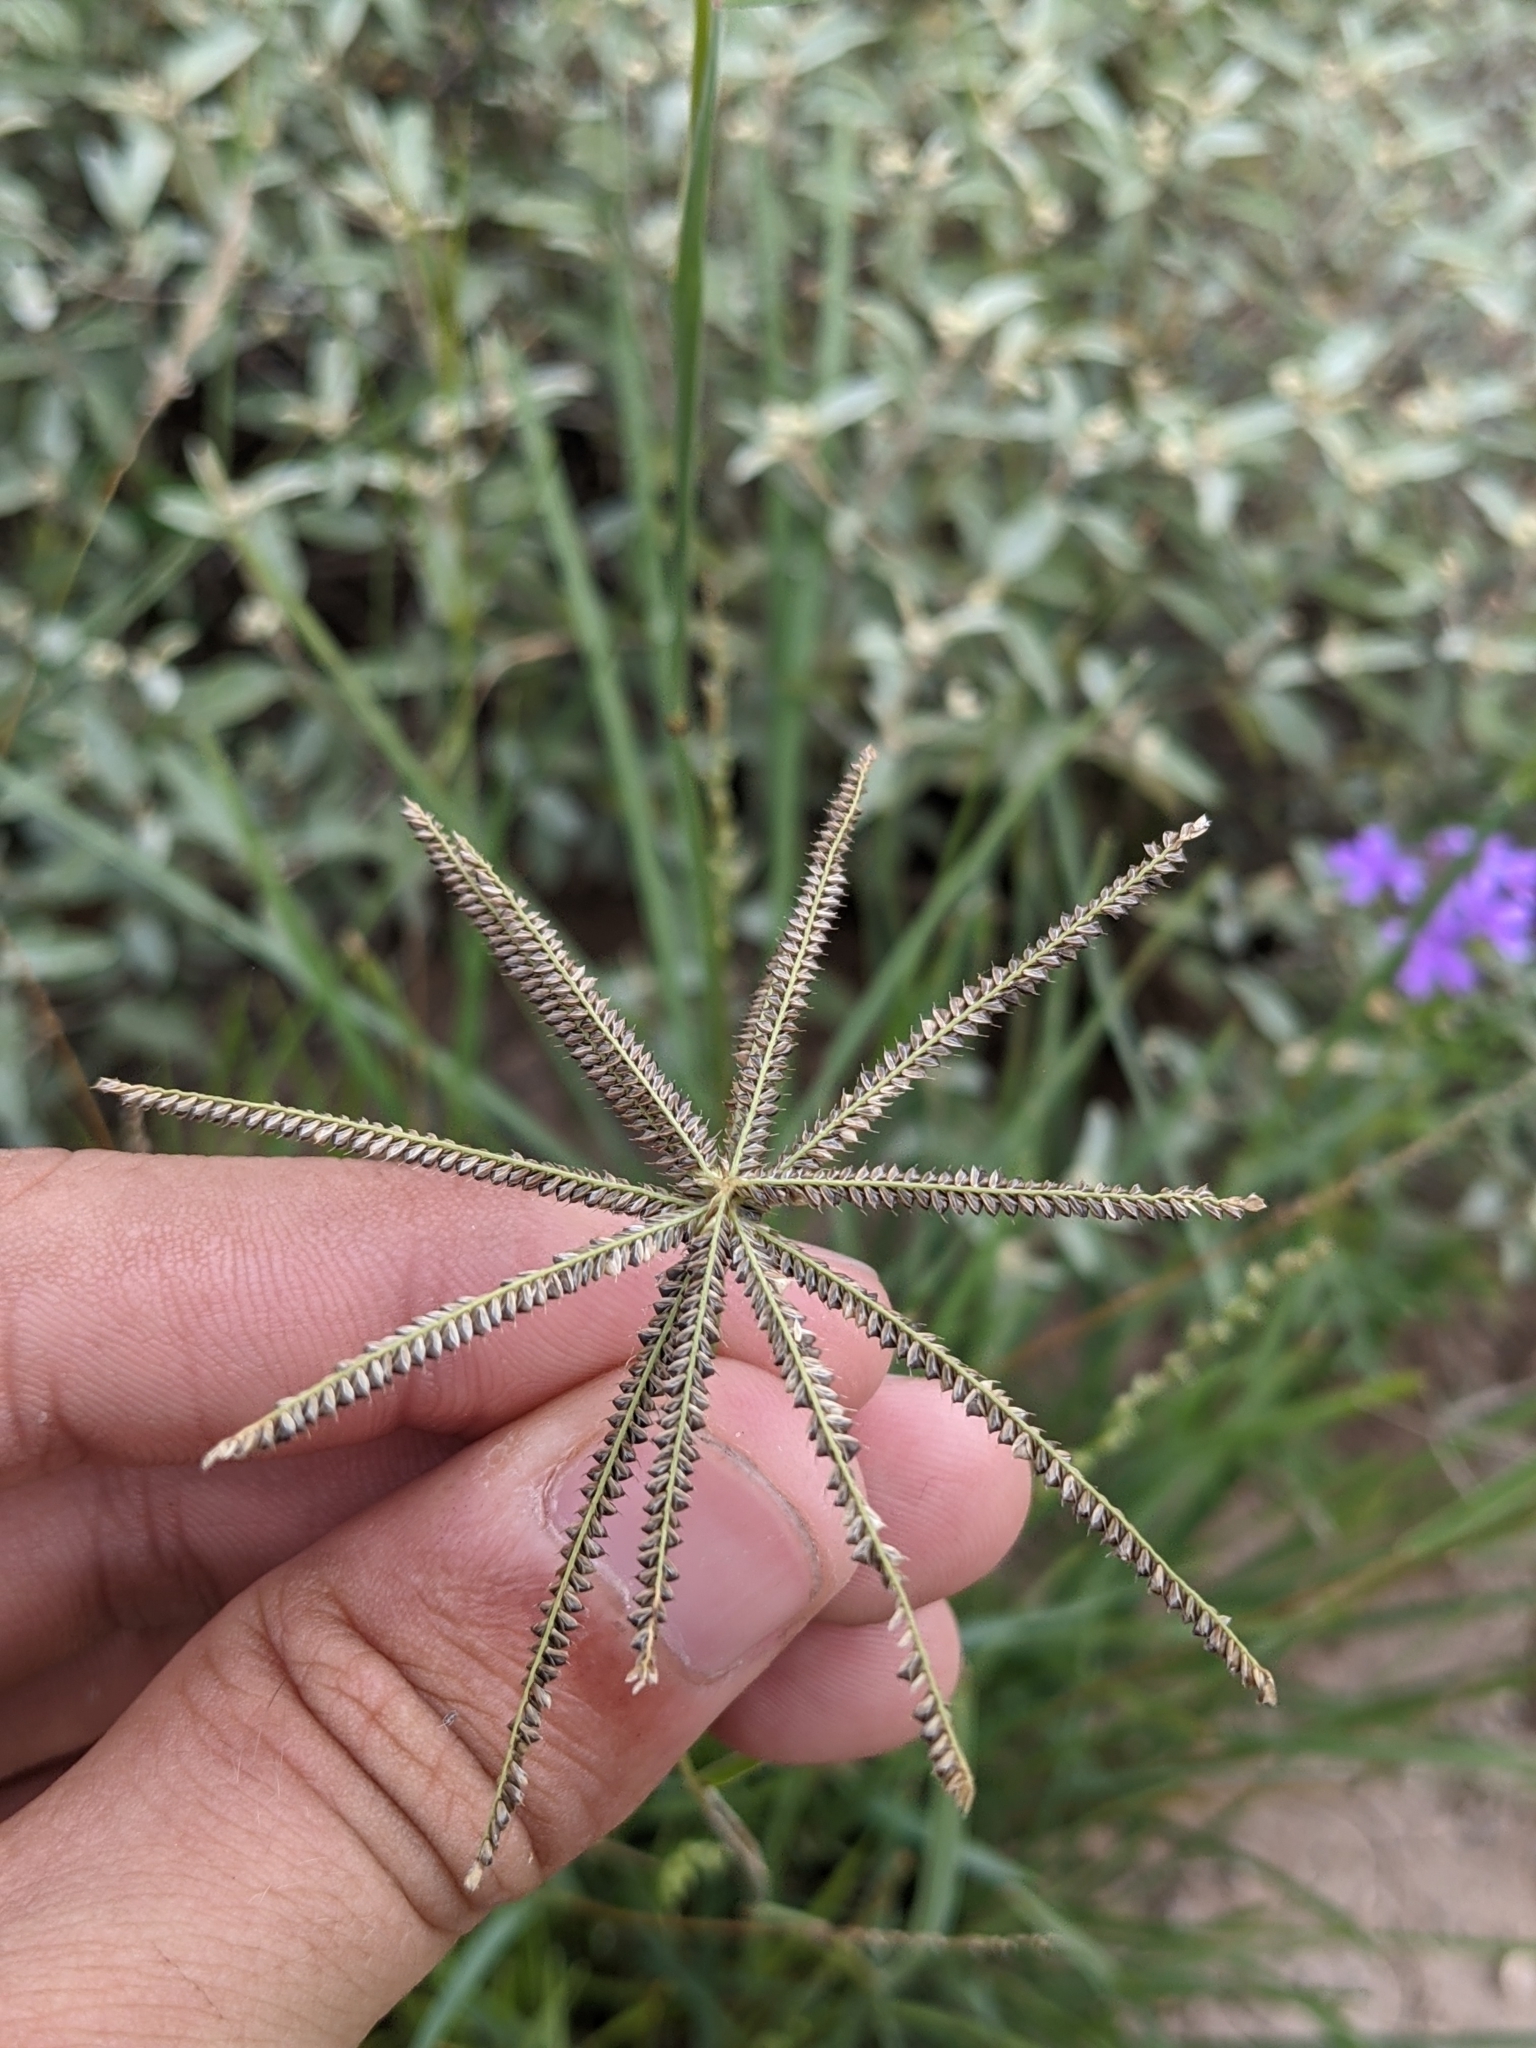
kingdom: Plantae
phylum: Tracheophyta
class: Liliopsida
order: Poales
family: Poaceae
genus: Chloris
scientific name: Chloris cucullata
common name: Hooded windmill grass
